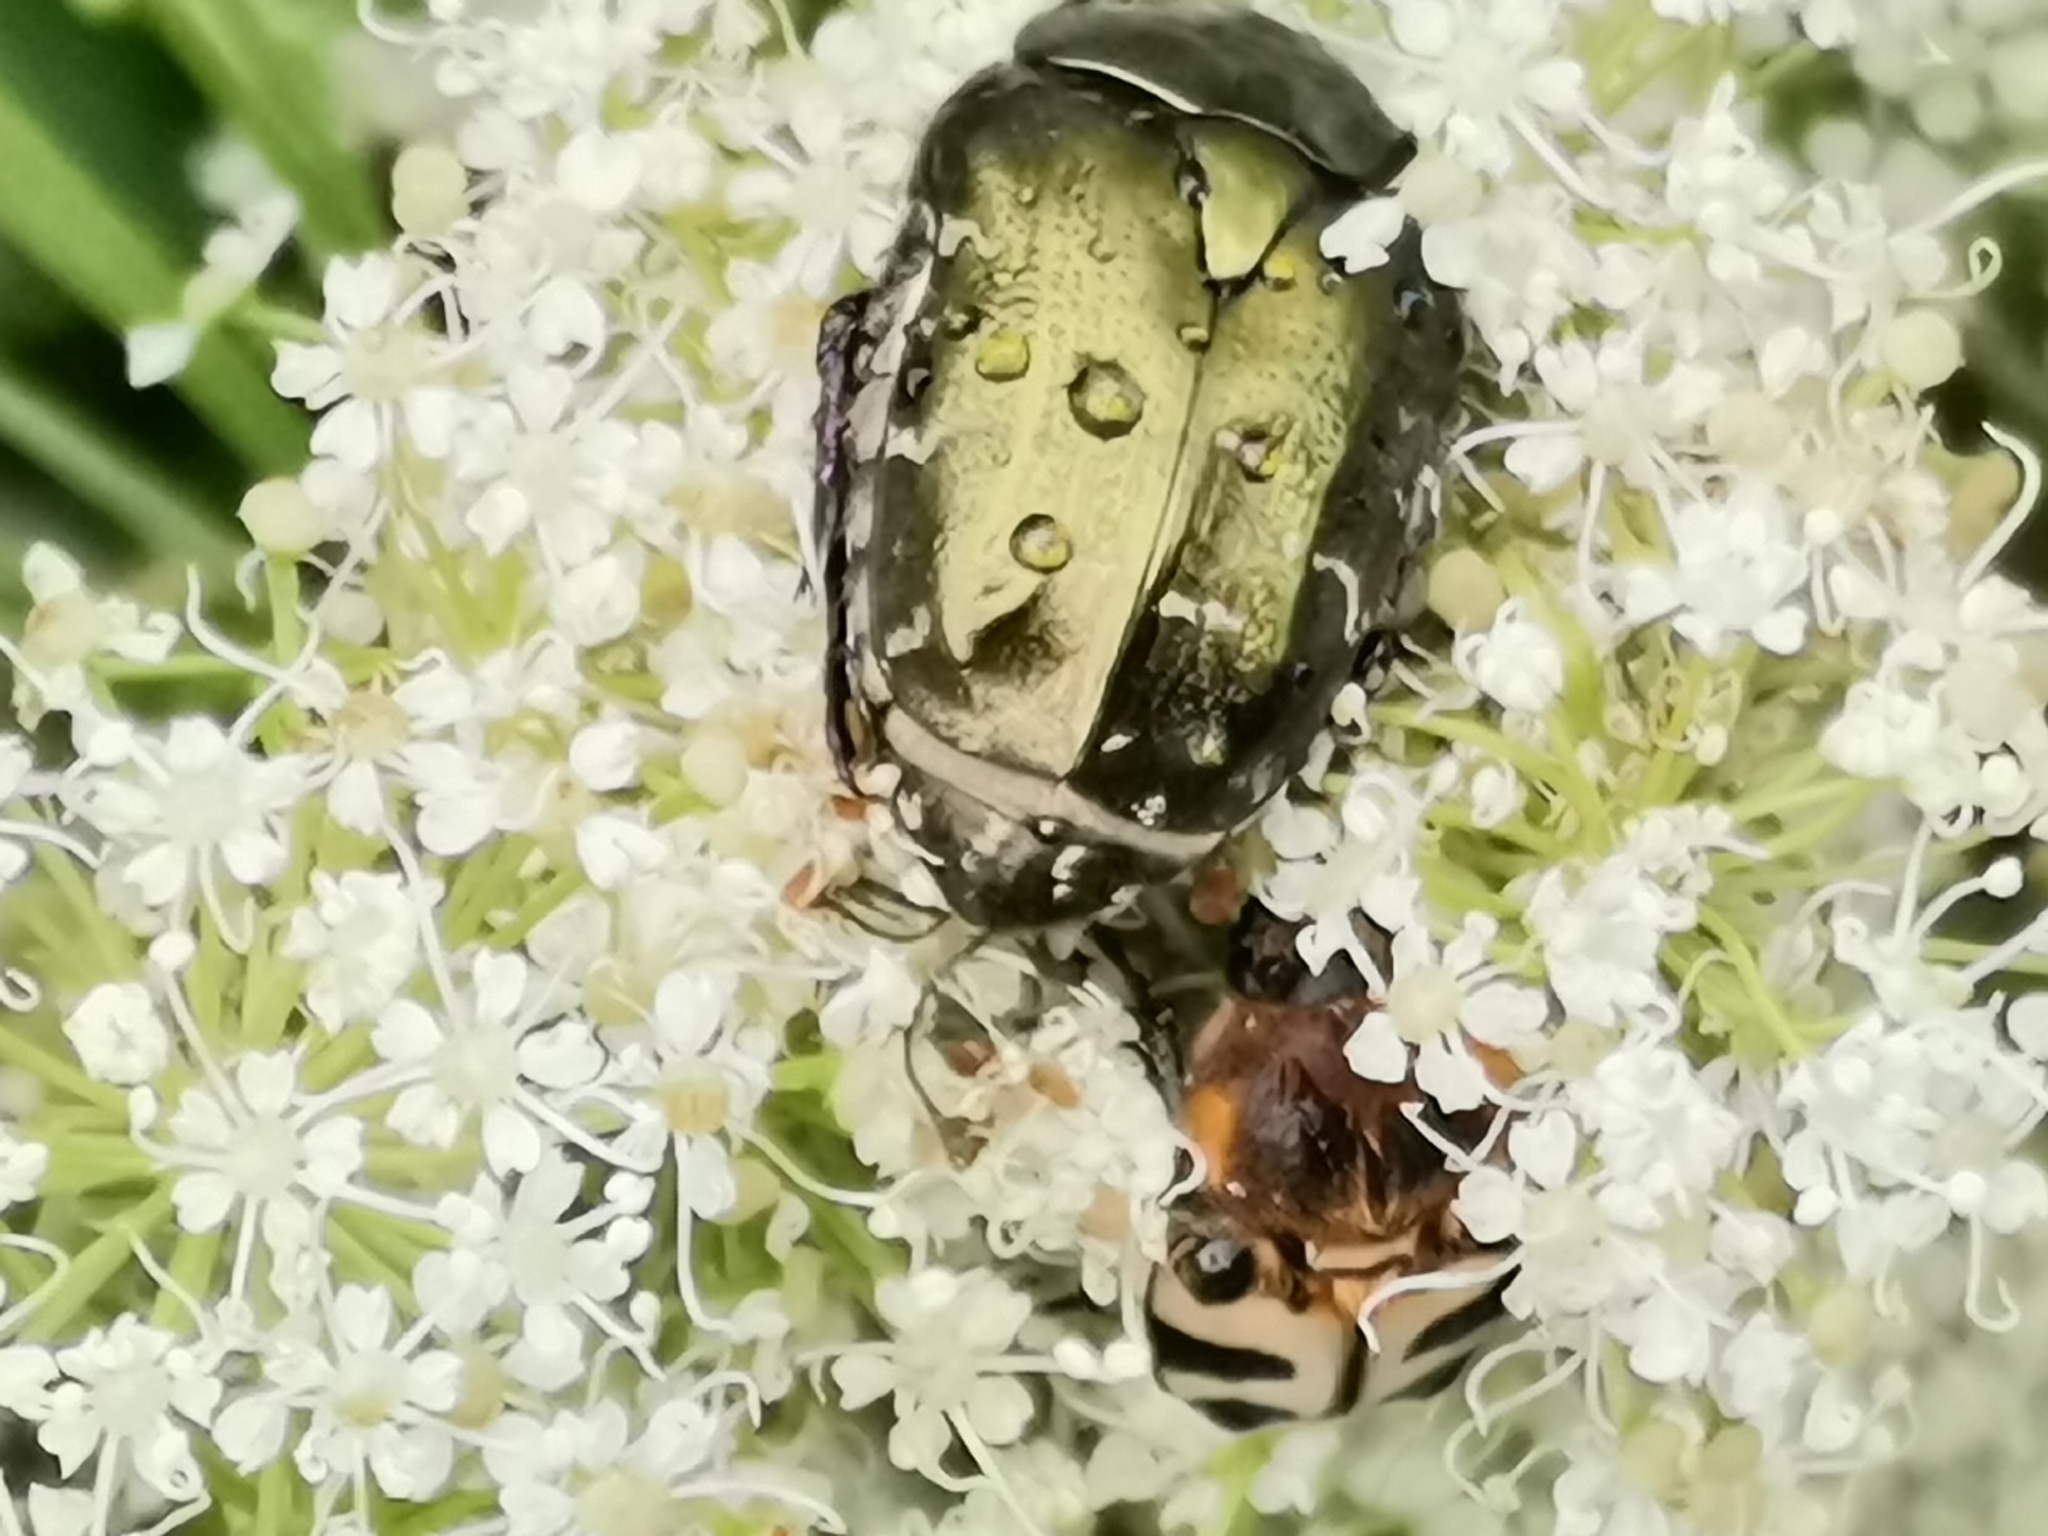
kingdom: Animalia
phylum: Arthropoda
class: Insecta
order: Coleoptera
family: Scarabaeidae
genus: Protaetia
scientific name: Protaetia cuprea
